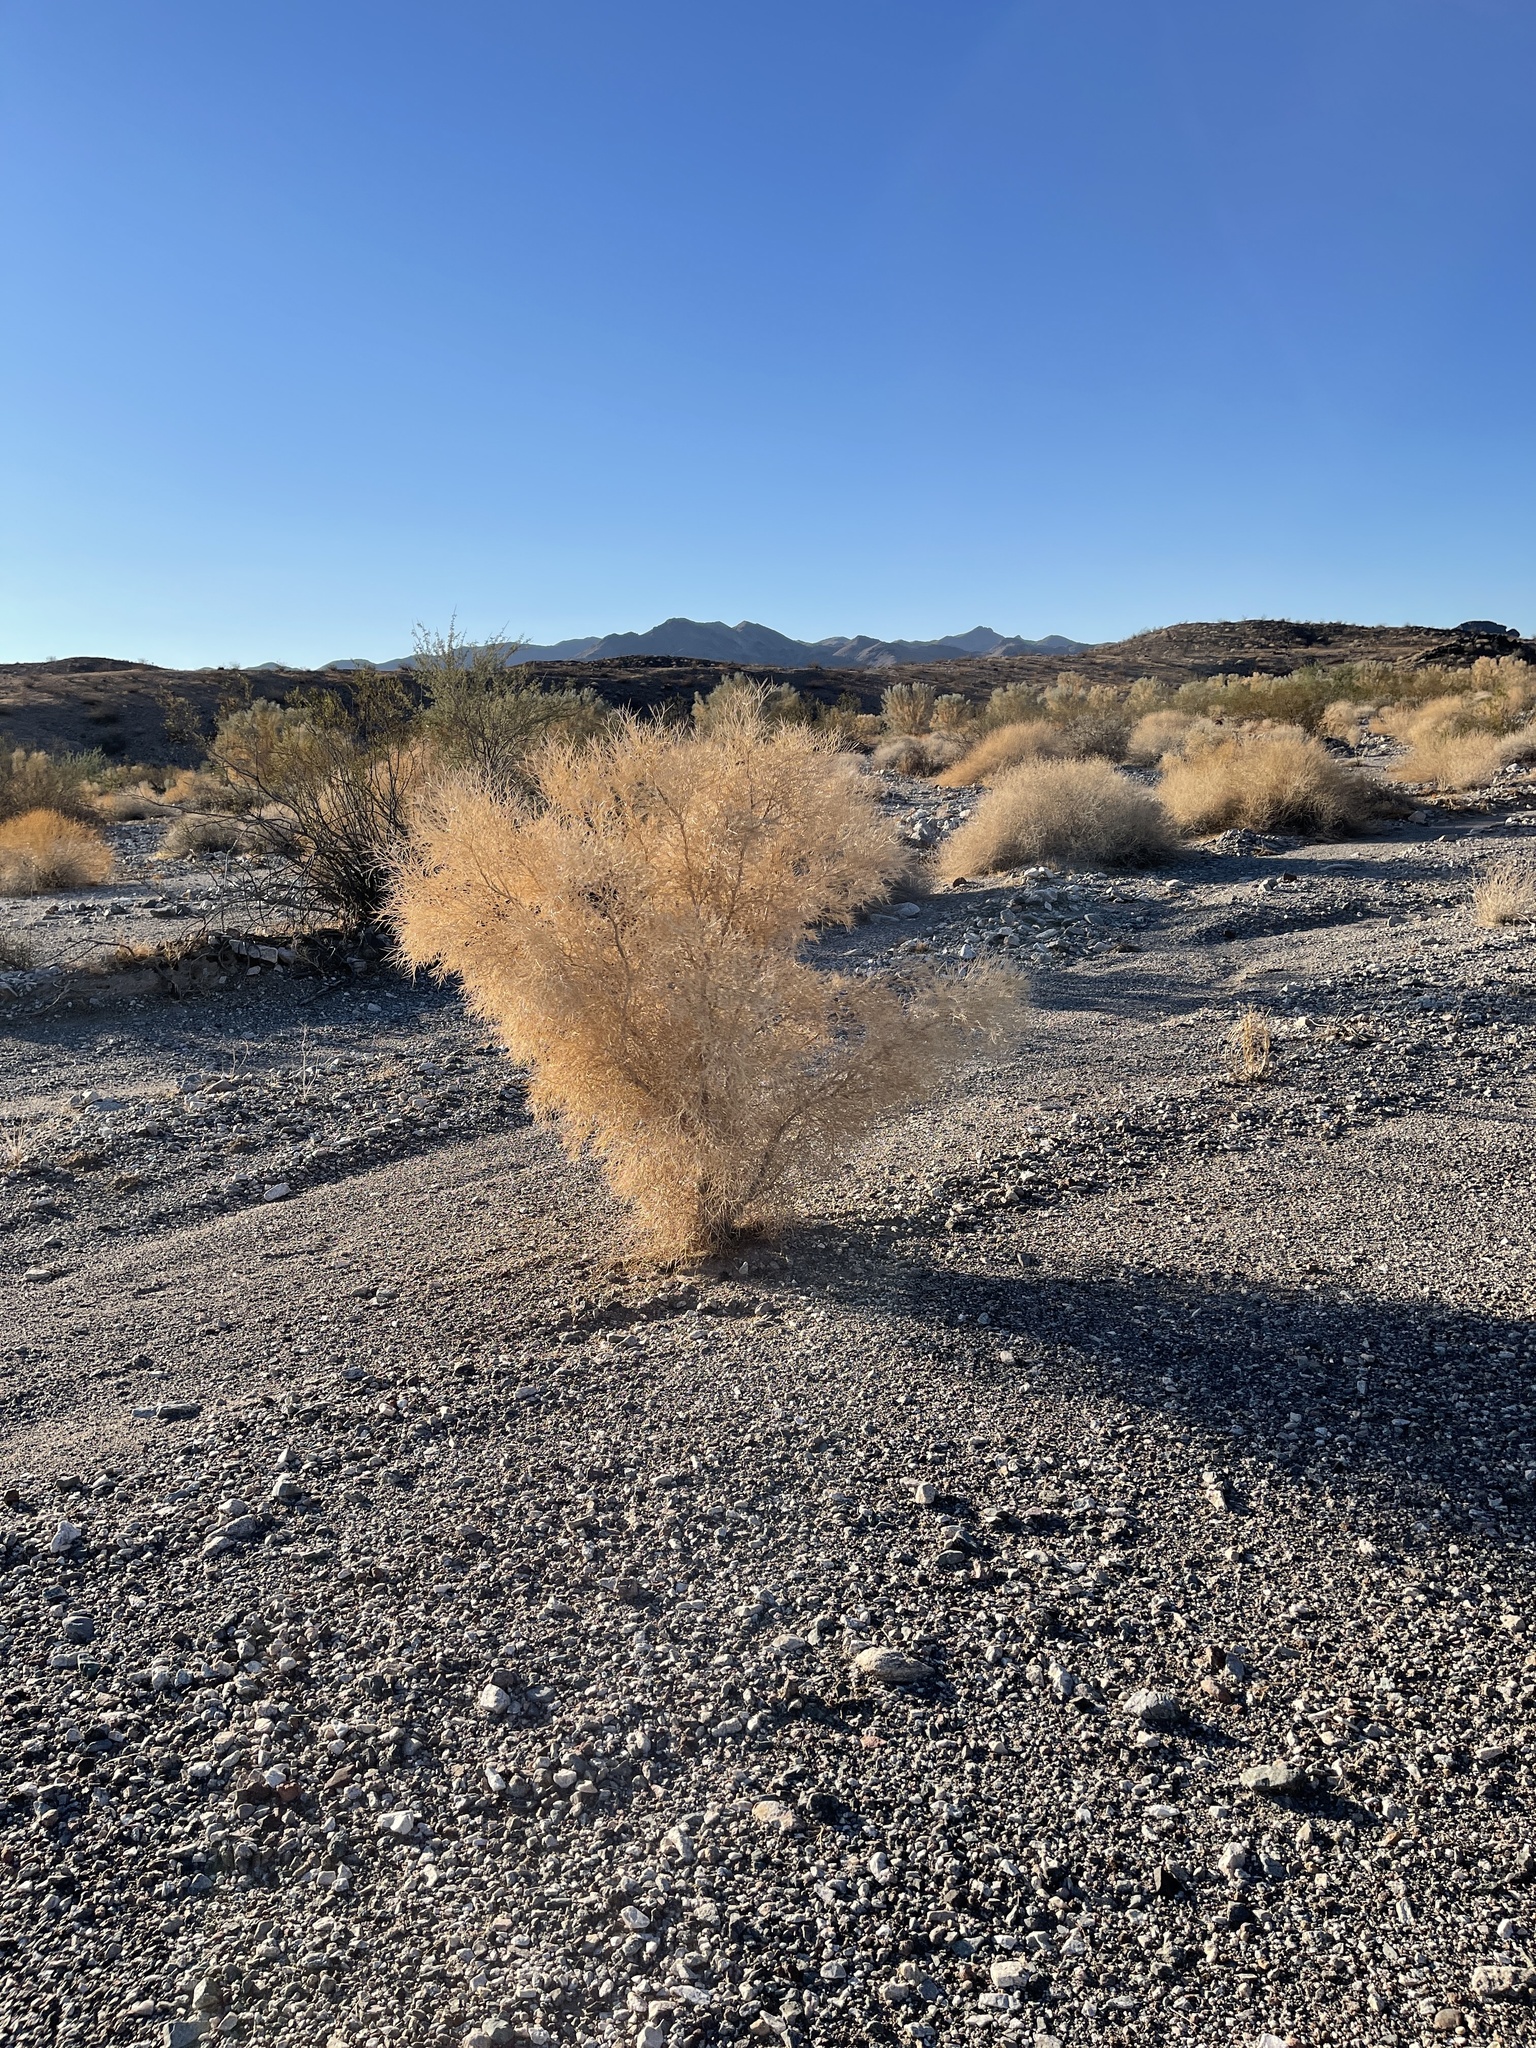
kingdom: Plantae
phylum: Tracheophyta
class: Magnoliopsida
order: Fabales
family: Fabaceae
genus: Psorothamnus
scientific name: Psorothamnus spinosus
